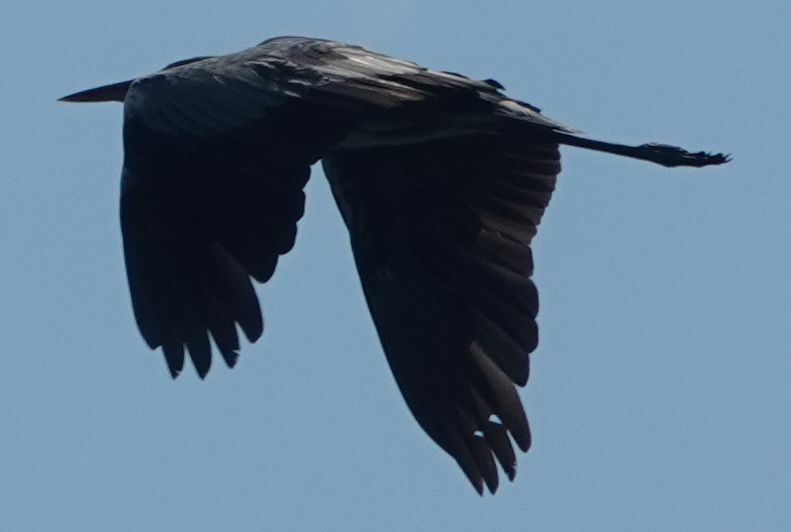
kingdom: Animalia
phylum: Chordata
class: Aves
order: Pelecaniformes
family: Ardeidae
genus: Ardea
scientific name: Ardea cinerea
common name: Grey heron
